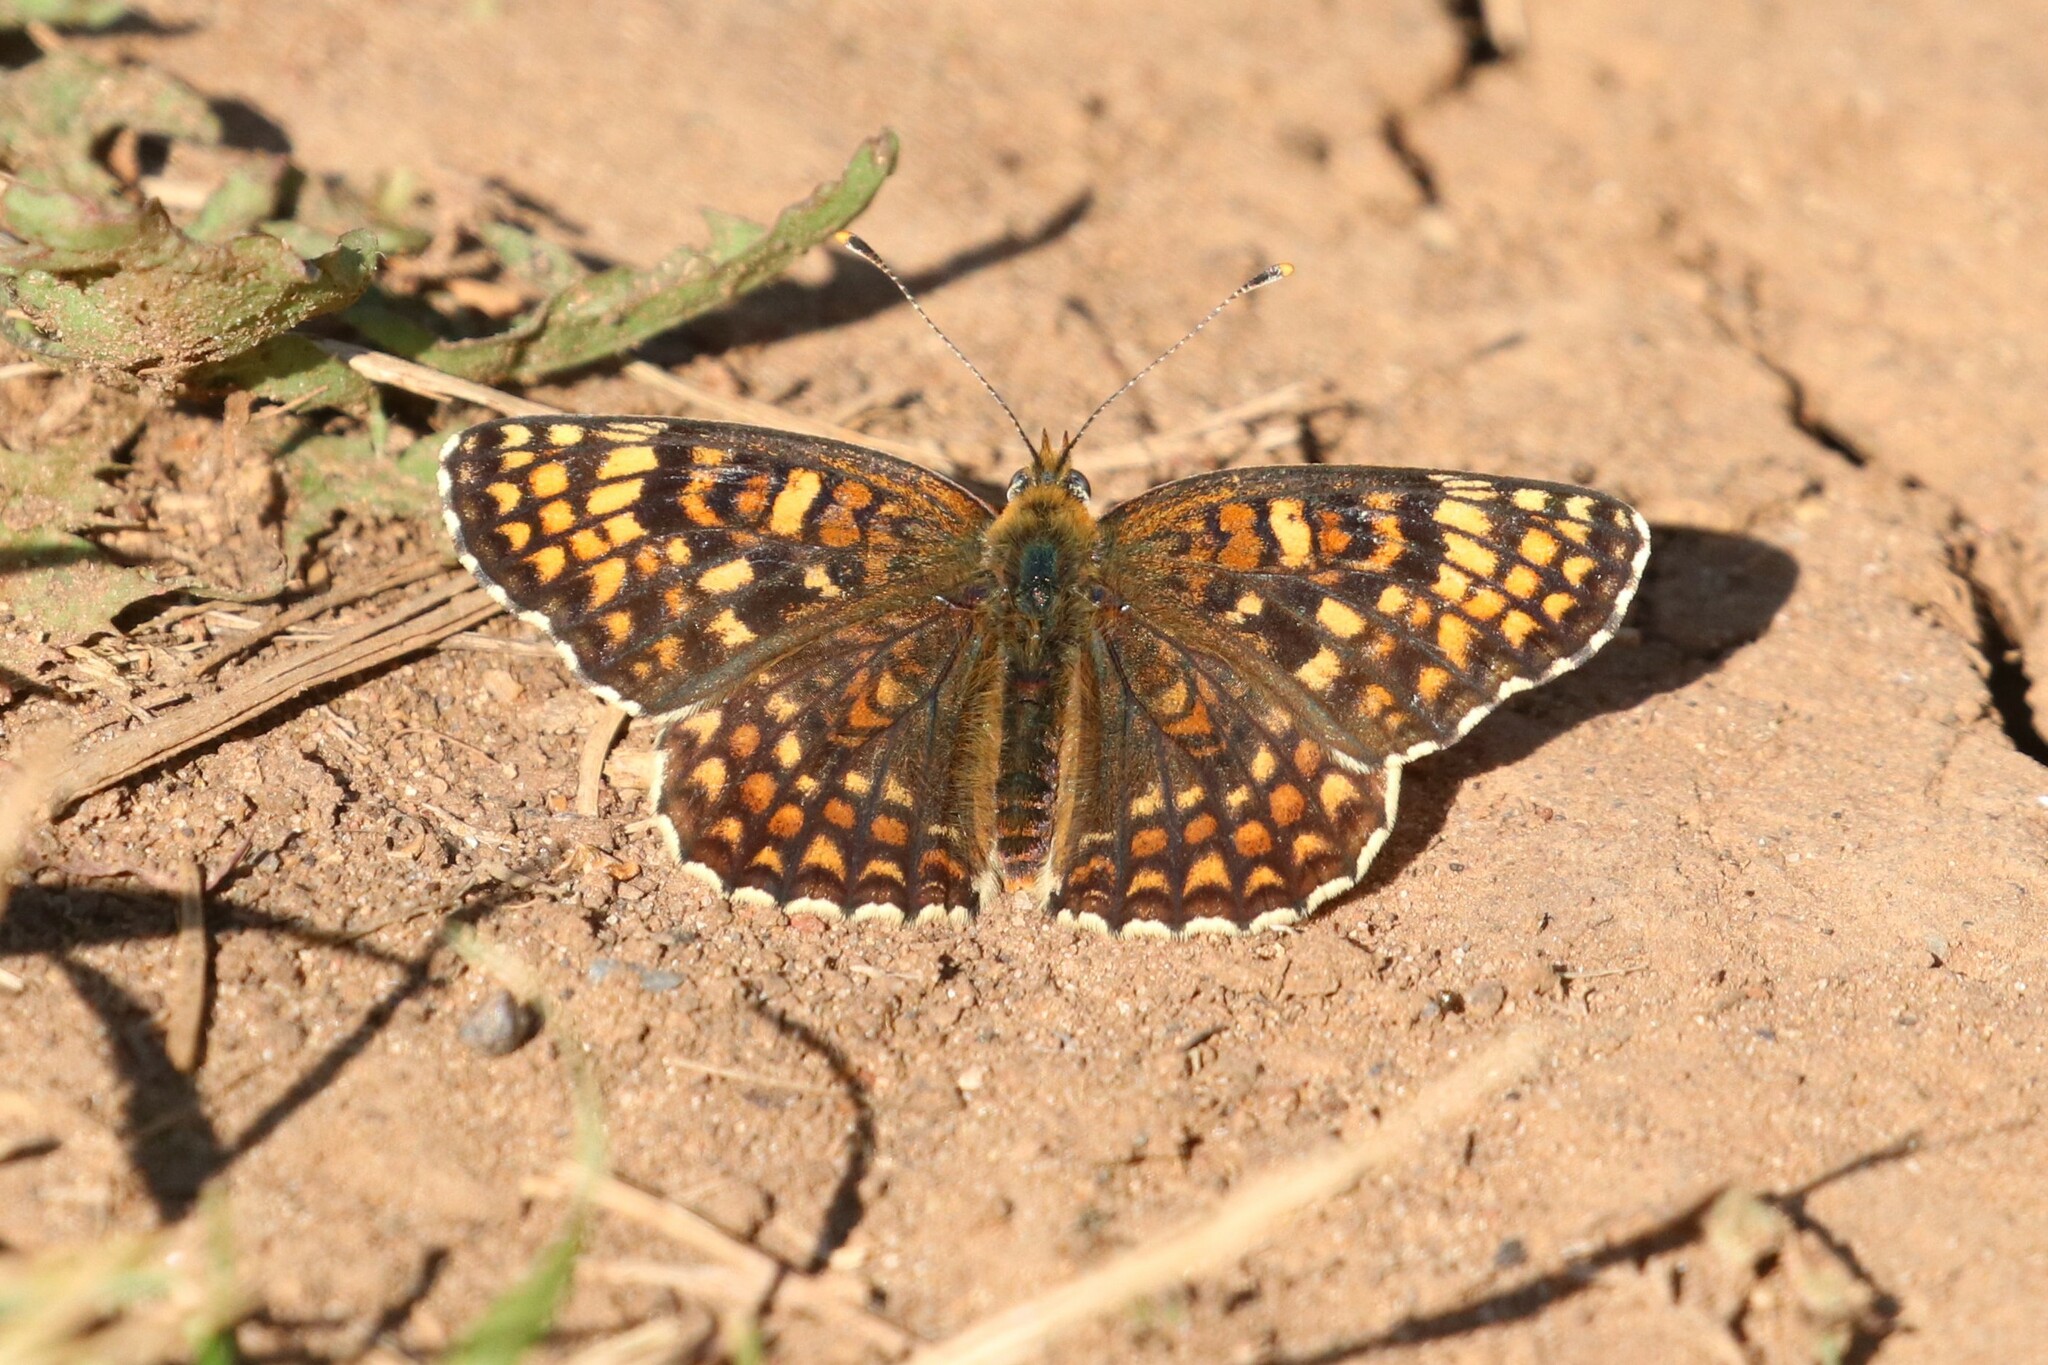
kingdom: Animalia
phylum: Arthropoda
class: Insecta
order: Lepidoptera
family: Nymphalidae
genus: Melitaea
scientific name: Melitaea phoebe
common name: Knapweed fritillary
